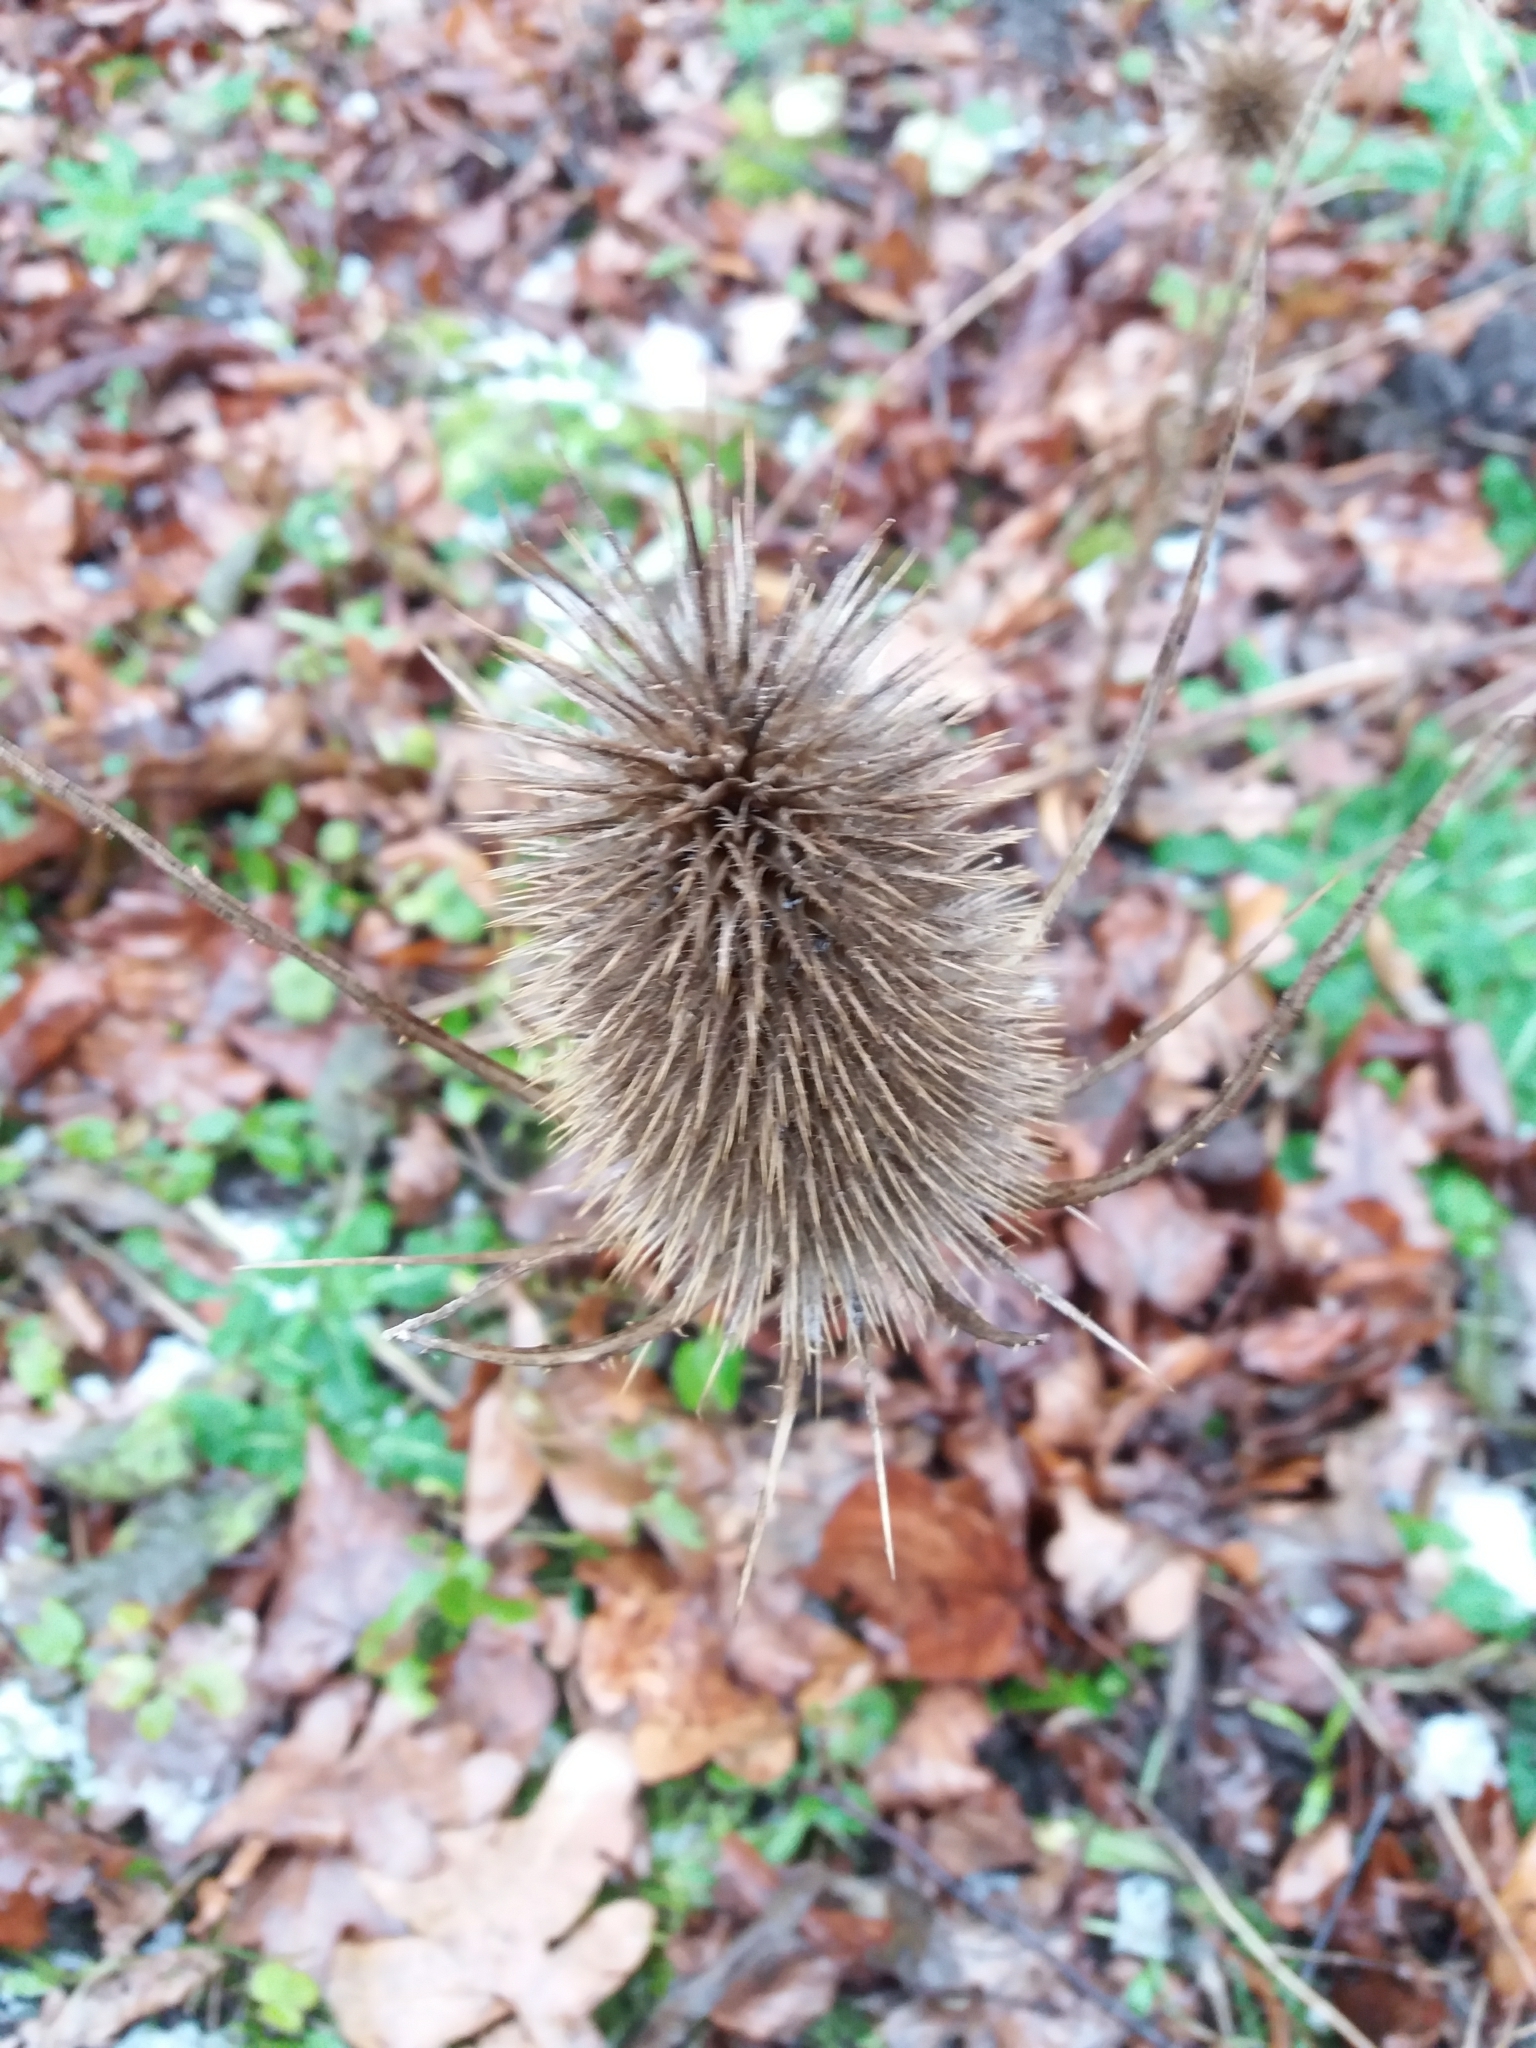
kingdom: Plantae
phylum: Tracheophyta
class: Magnoliopsida
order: Dipsacales
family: Caprifoliaceae
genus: Dipsacus
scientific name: Dipsacus fullonum
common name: Teasel
